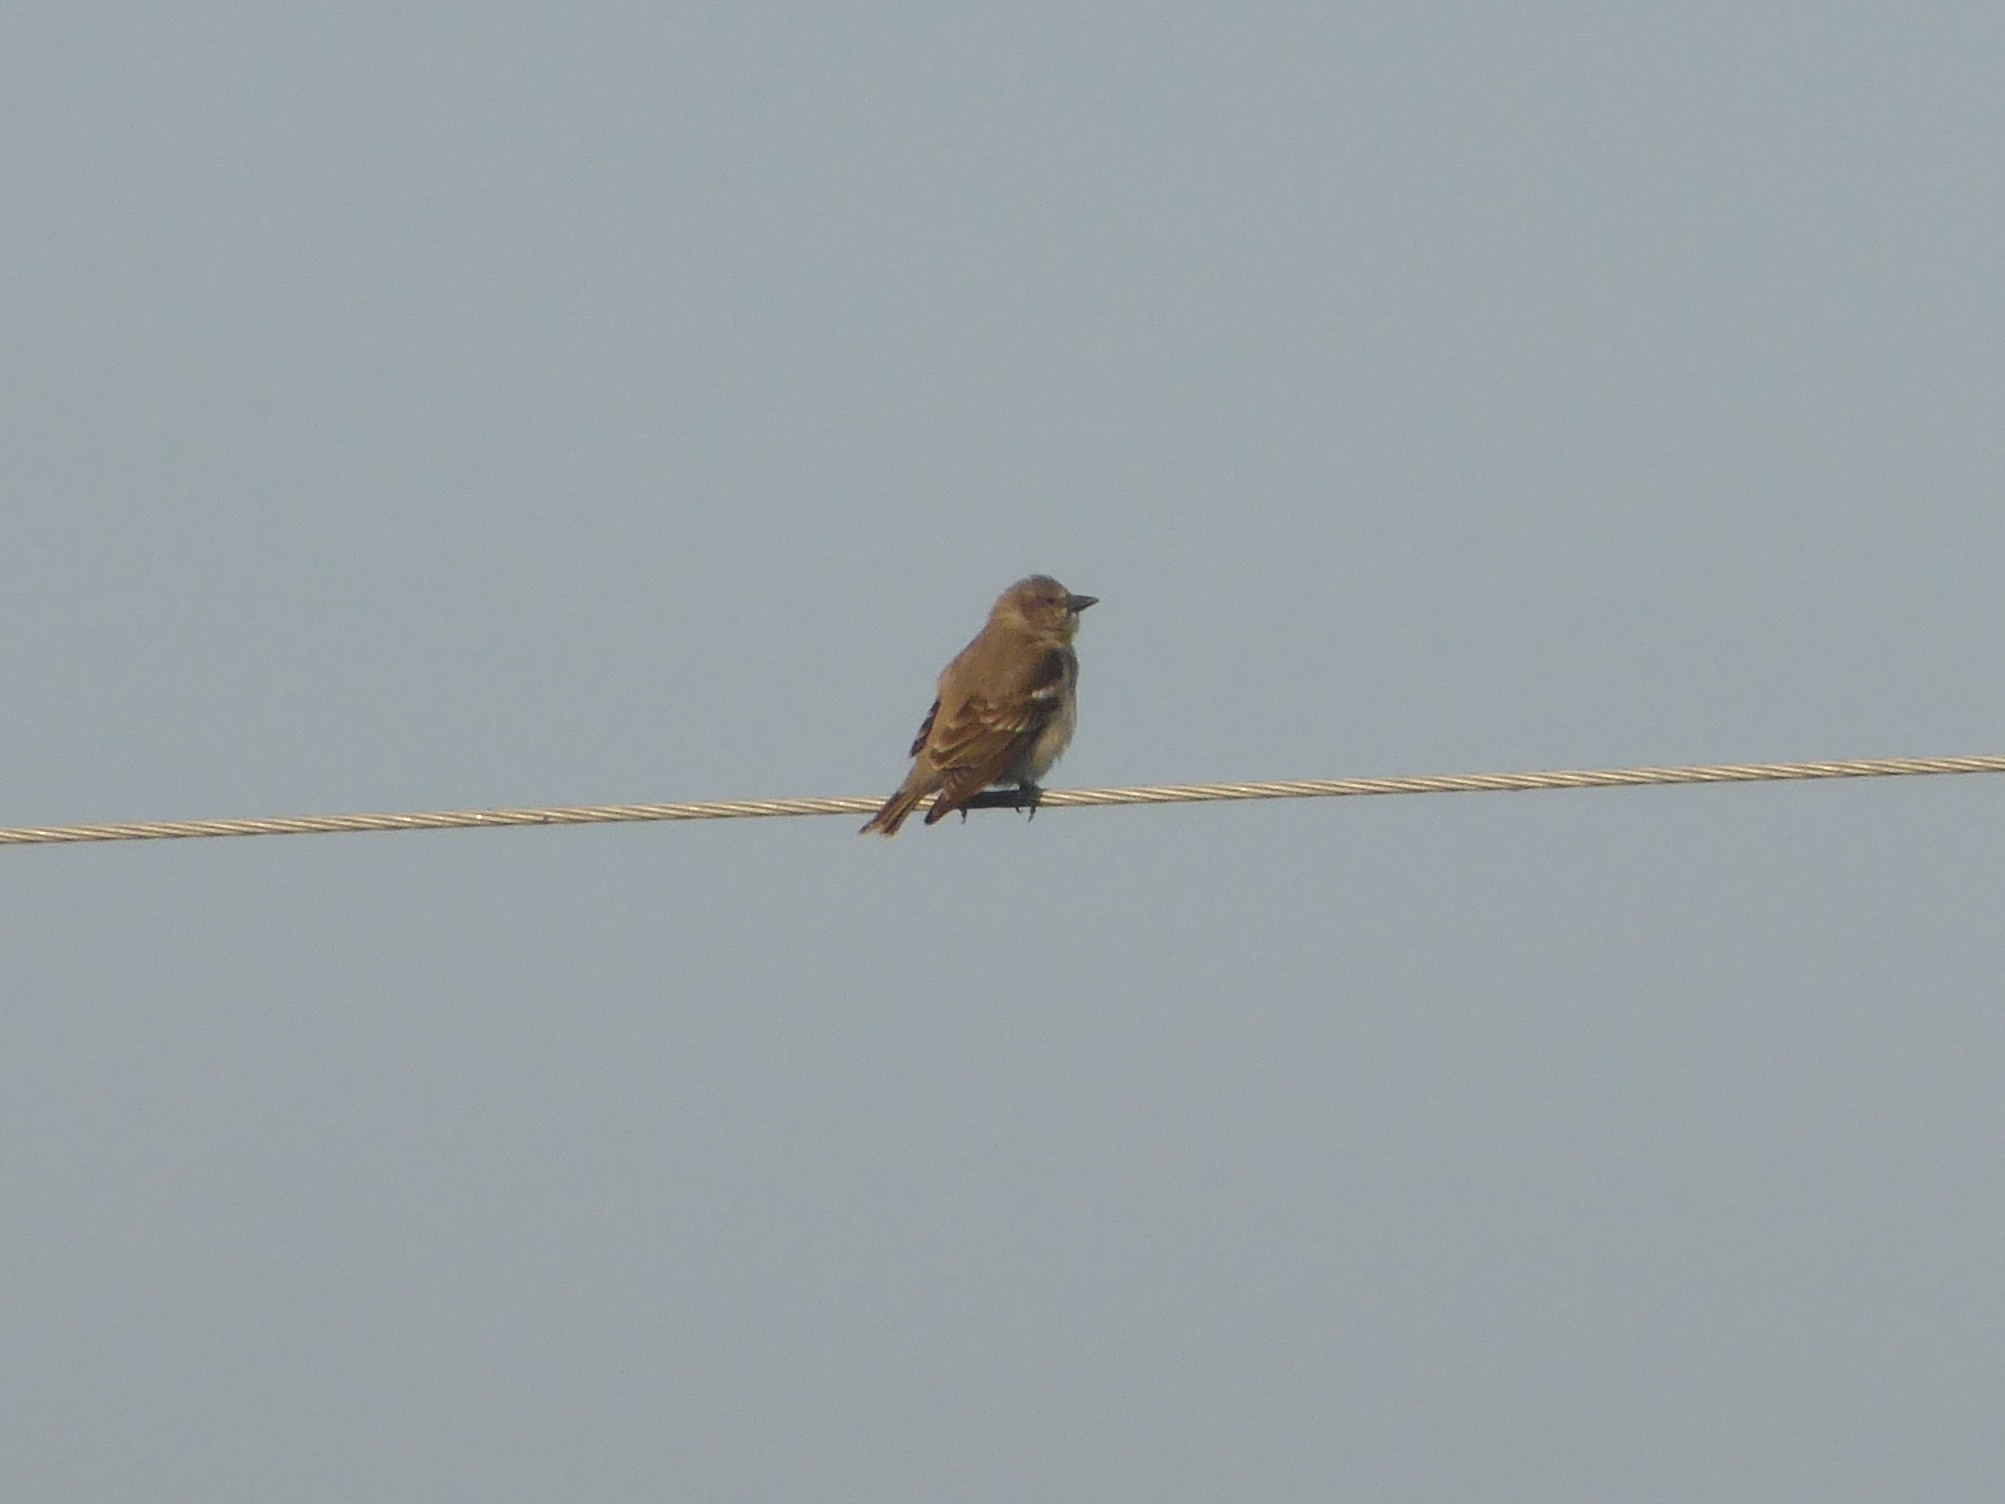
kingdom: Animalia
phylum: Chordata
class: Aves
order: Passeriformes
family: Passeridae
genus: Gymnoris
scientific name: Gymnoris xanthocollis
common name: Yellow-throated sparrow
